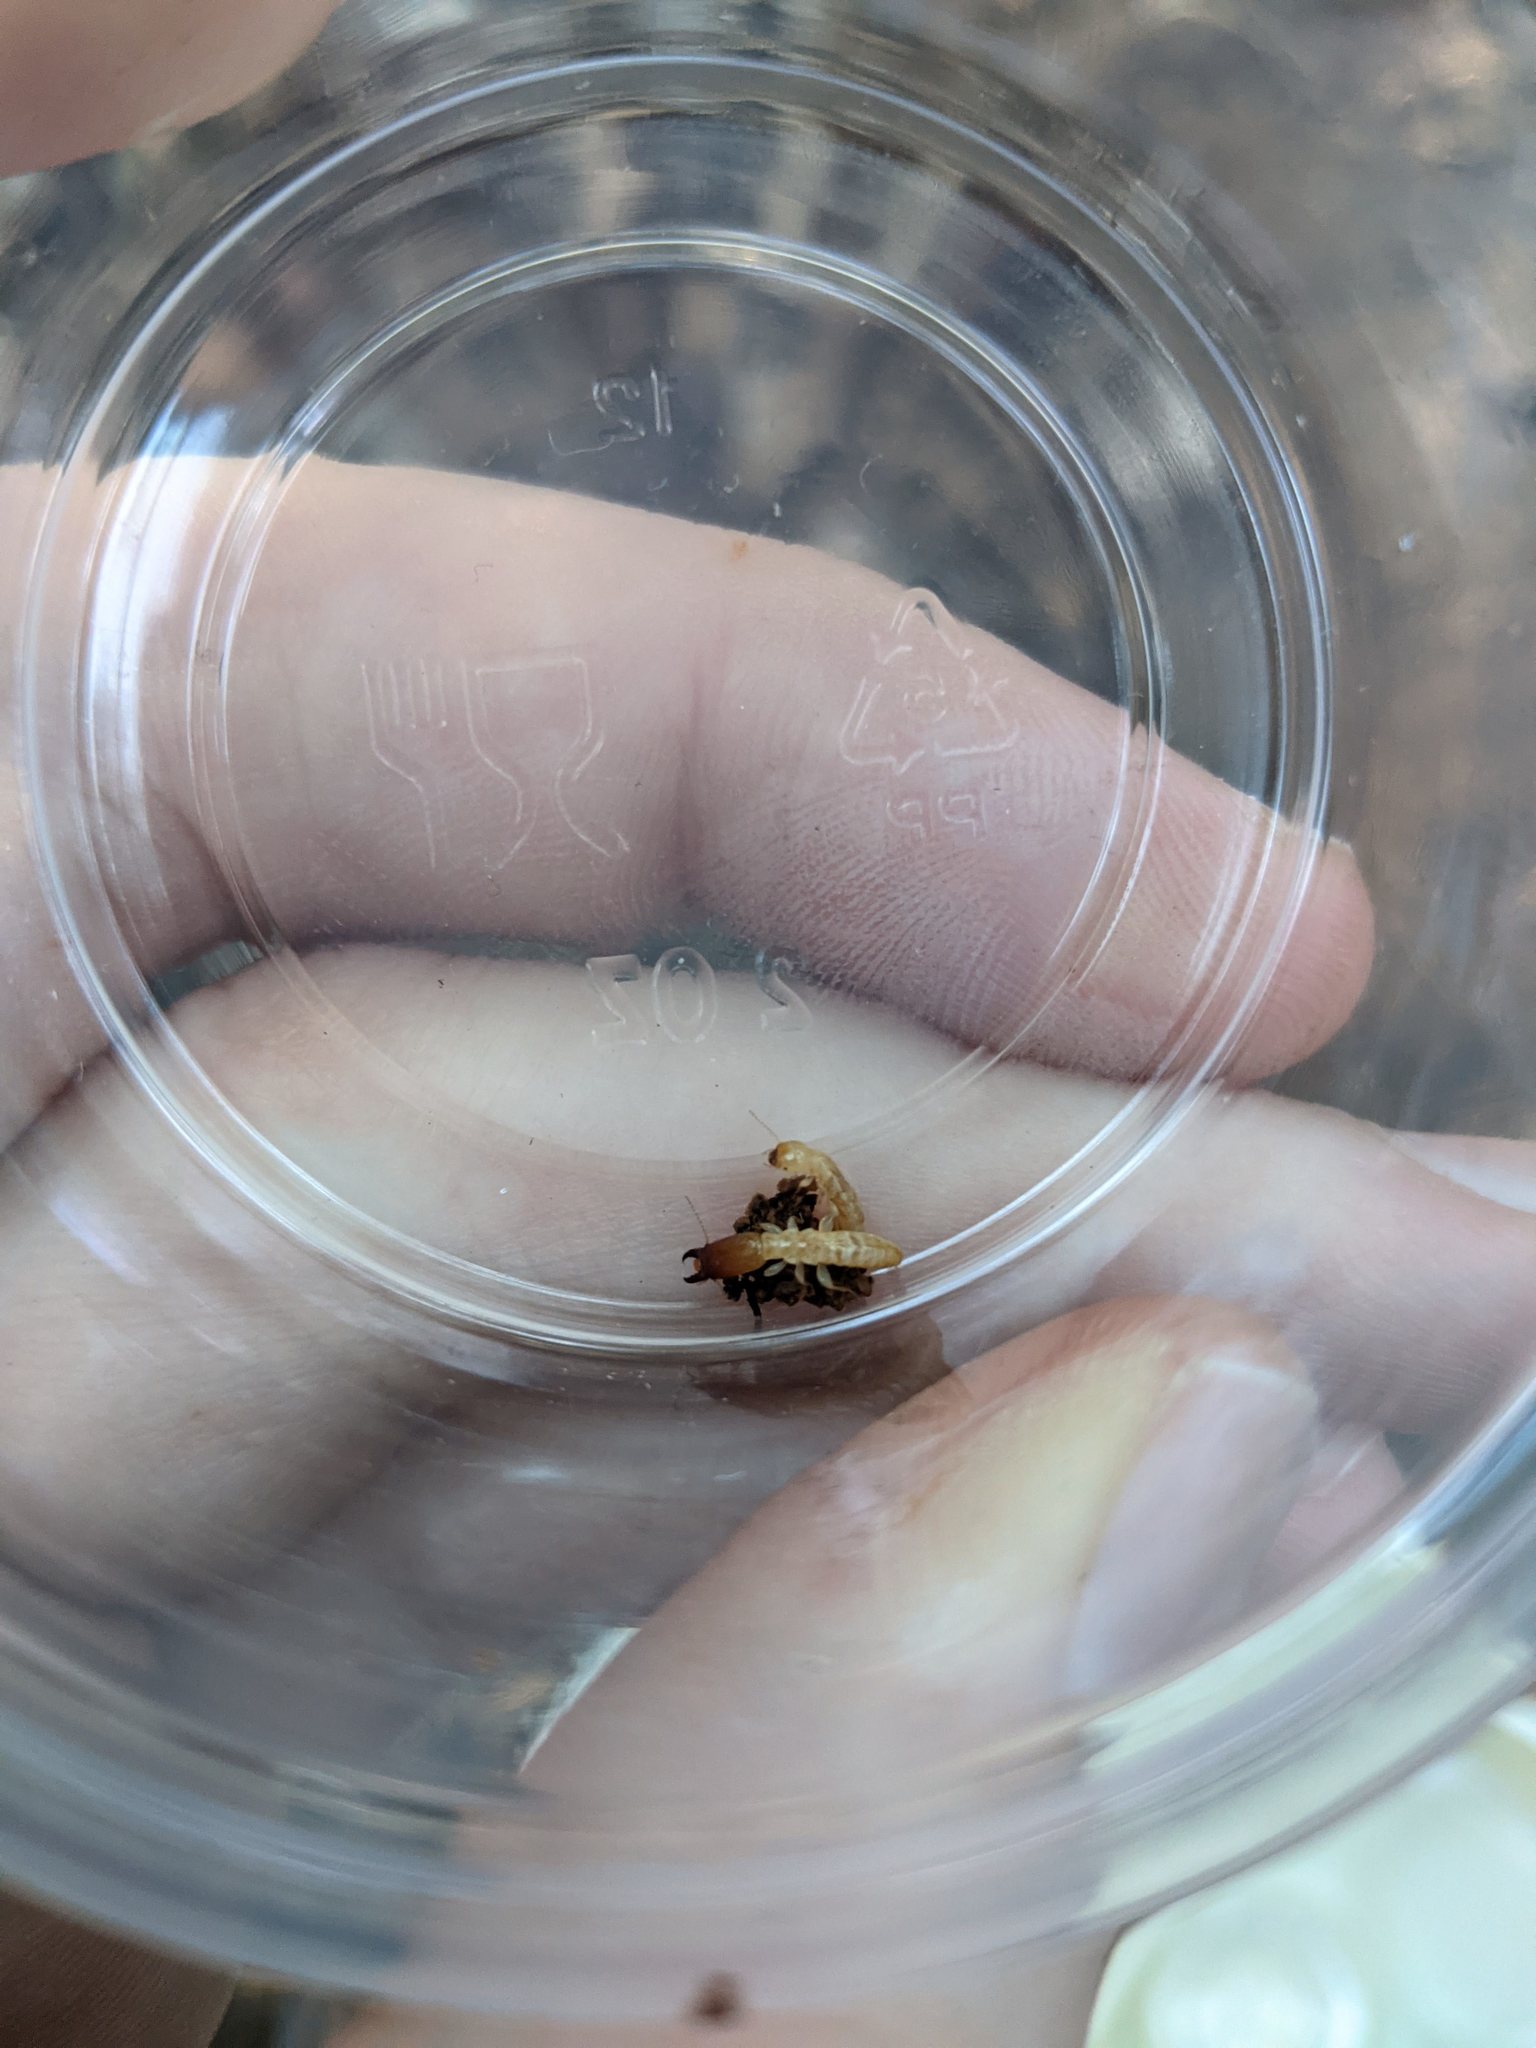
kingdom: Animalia
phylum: Arthropoda
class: Insecta
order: Blattodea
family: Stolotermitidae
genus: Stolotermes
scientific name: Stolotermes ruficeps
